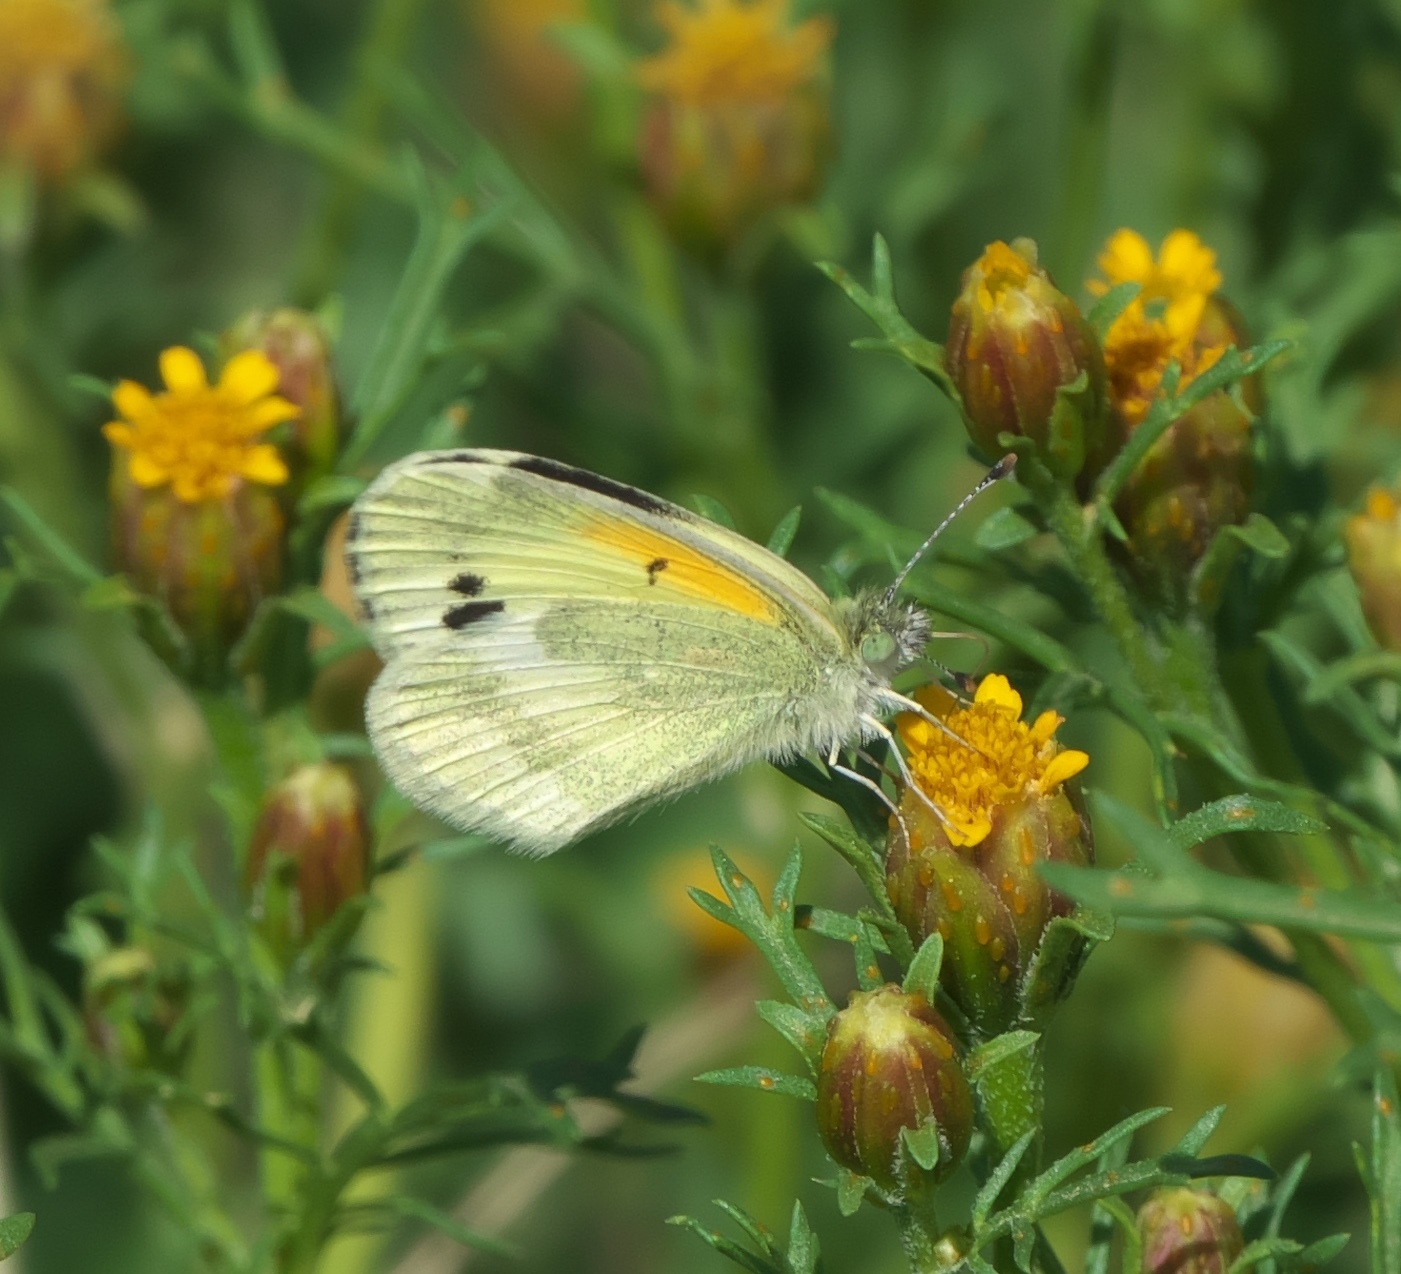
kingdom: Animalia
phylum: Arthropoda
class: Insecta
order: Lepidoptera
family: Pieridae
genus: Nathalis
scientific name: Nathalis iole
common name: Dainty sulphur
